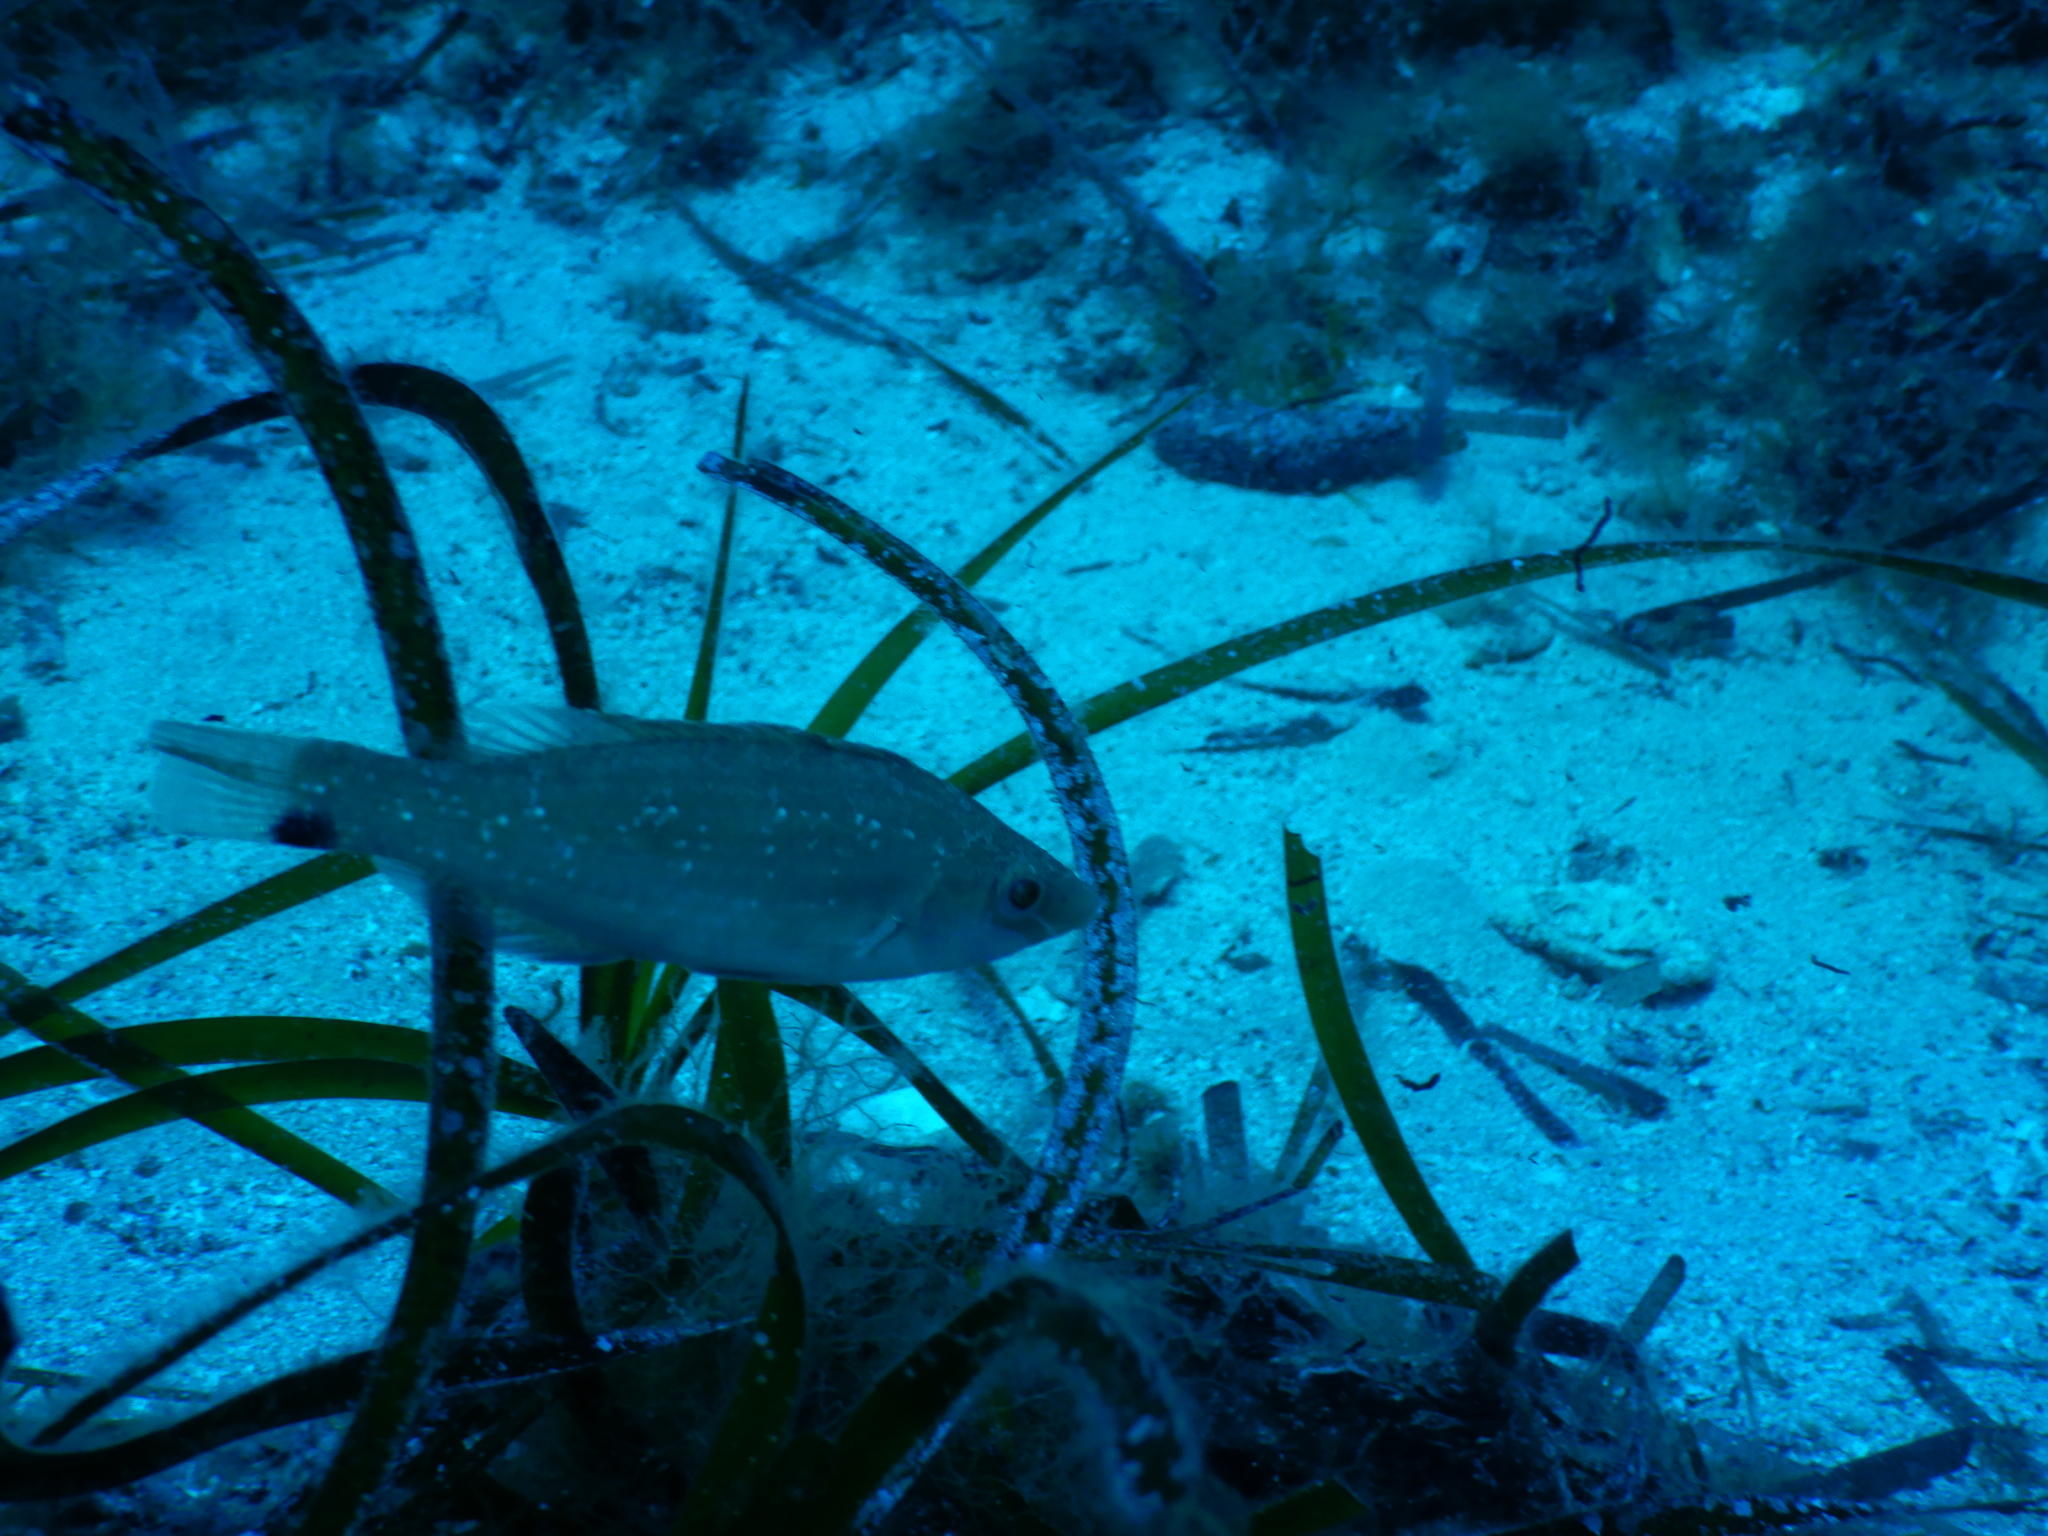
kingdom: Animalia
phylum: Chordata
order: Perciformes
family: Labridae
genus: Symphodus
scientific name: Symphodus cinereus
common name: Grey wrasse
